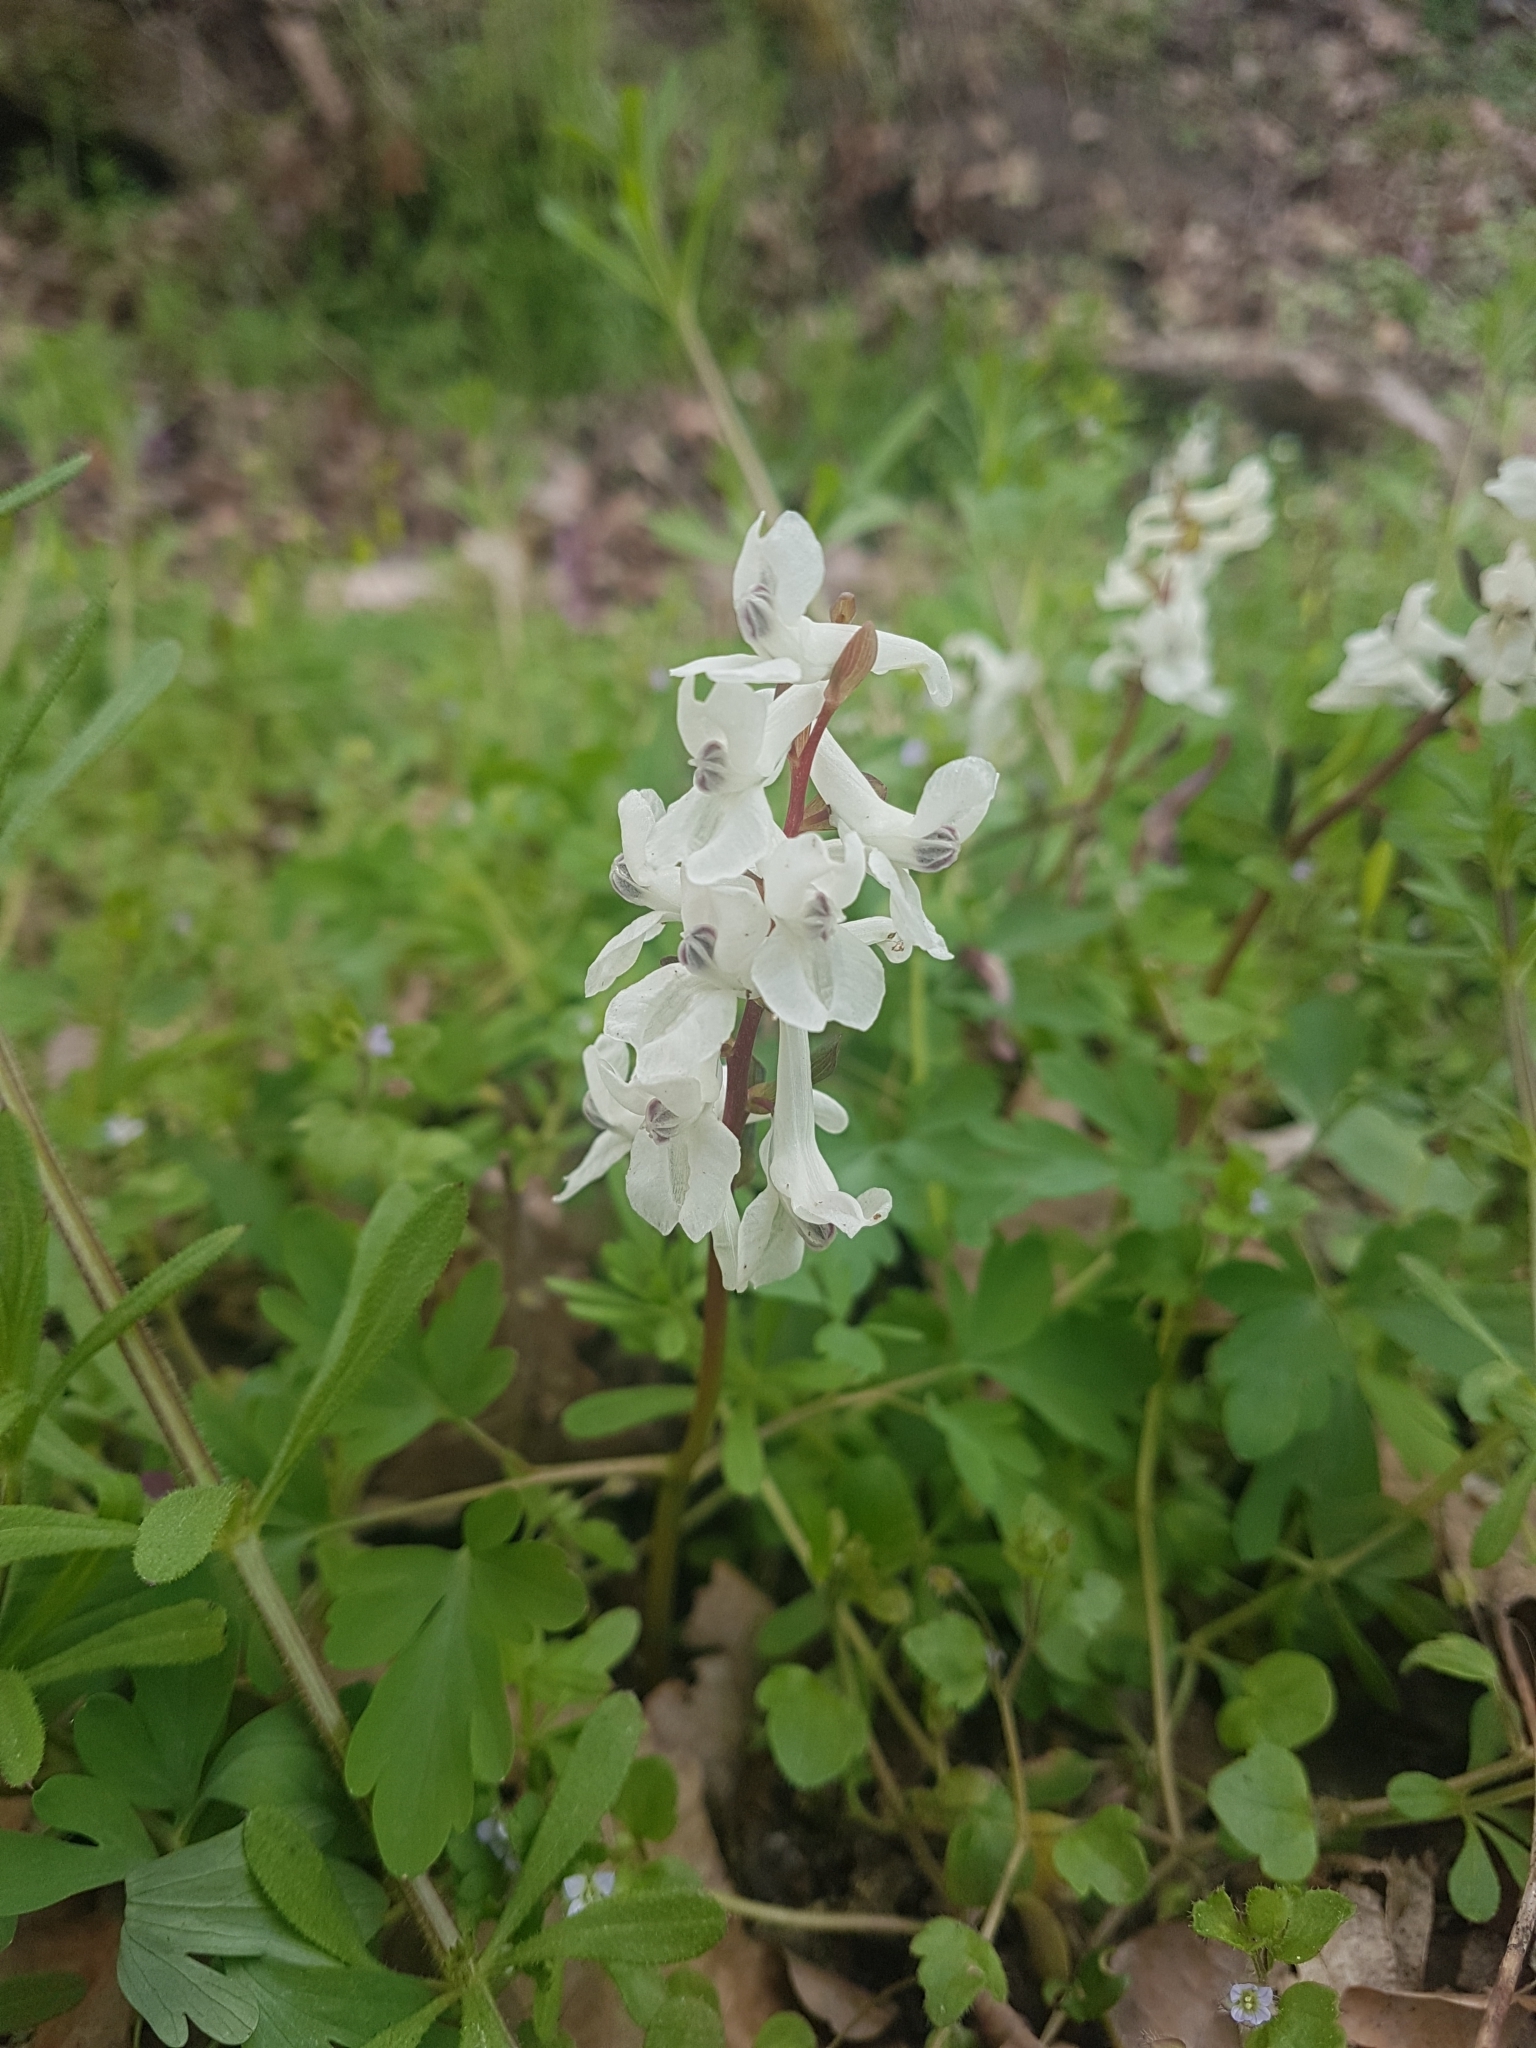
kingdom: Plantae
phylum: Tracheophyta
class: Magnoliopsida
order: Ranunculales
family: Papaveraceae
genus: Corydalis
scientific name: Corydalis cava
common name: Hollowroot
